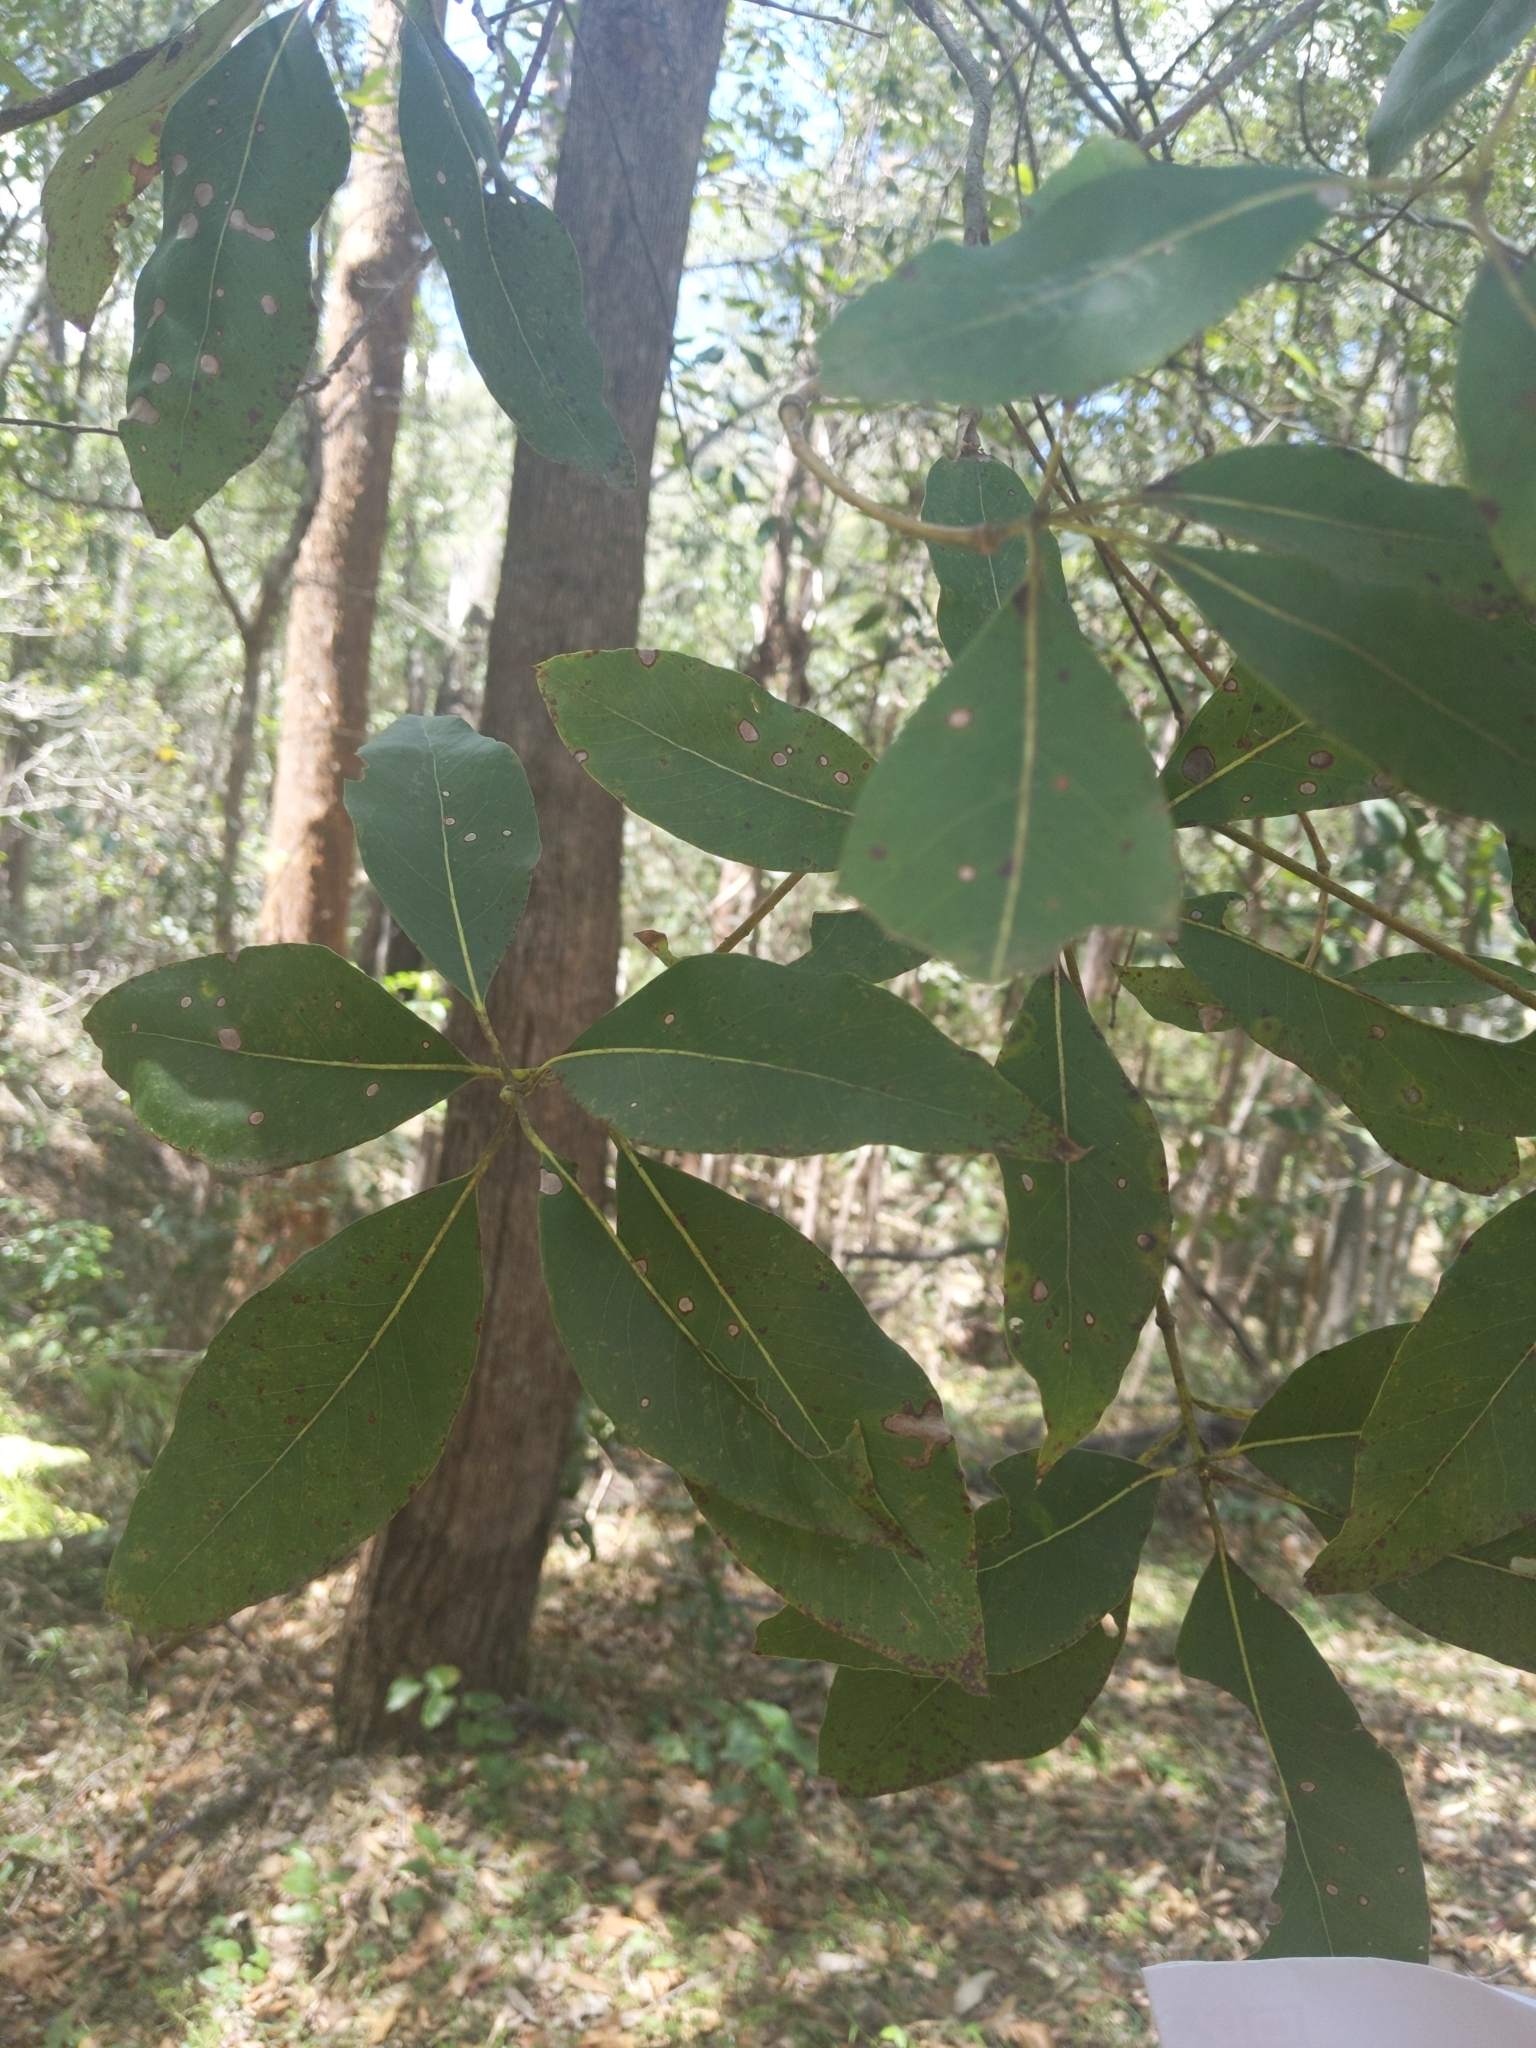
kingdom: Plantae
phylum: Tracheophyta
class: Magnoliopsida
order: Myrtales
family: Myrtaceae
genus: Lophostemon
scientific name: Lophostemon confertus
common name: Brisbane box
